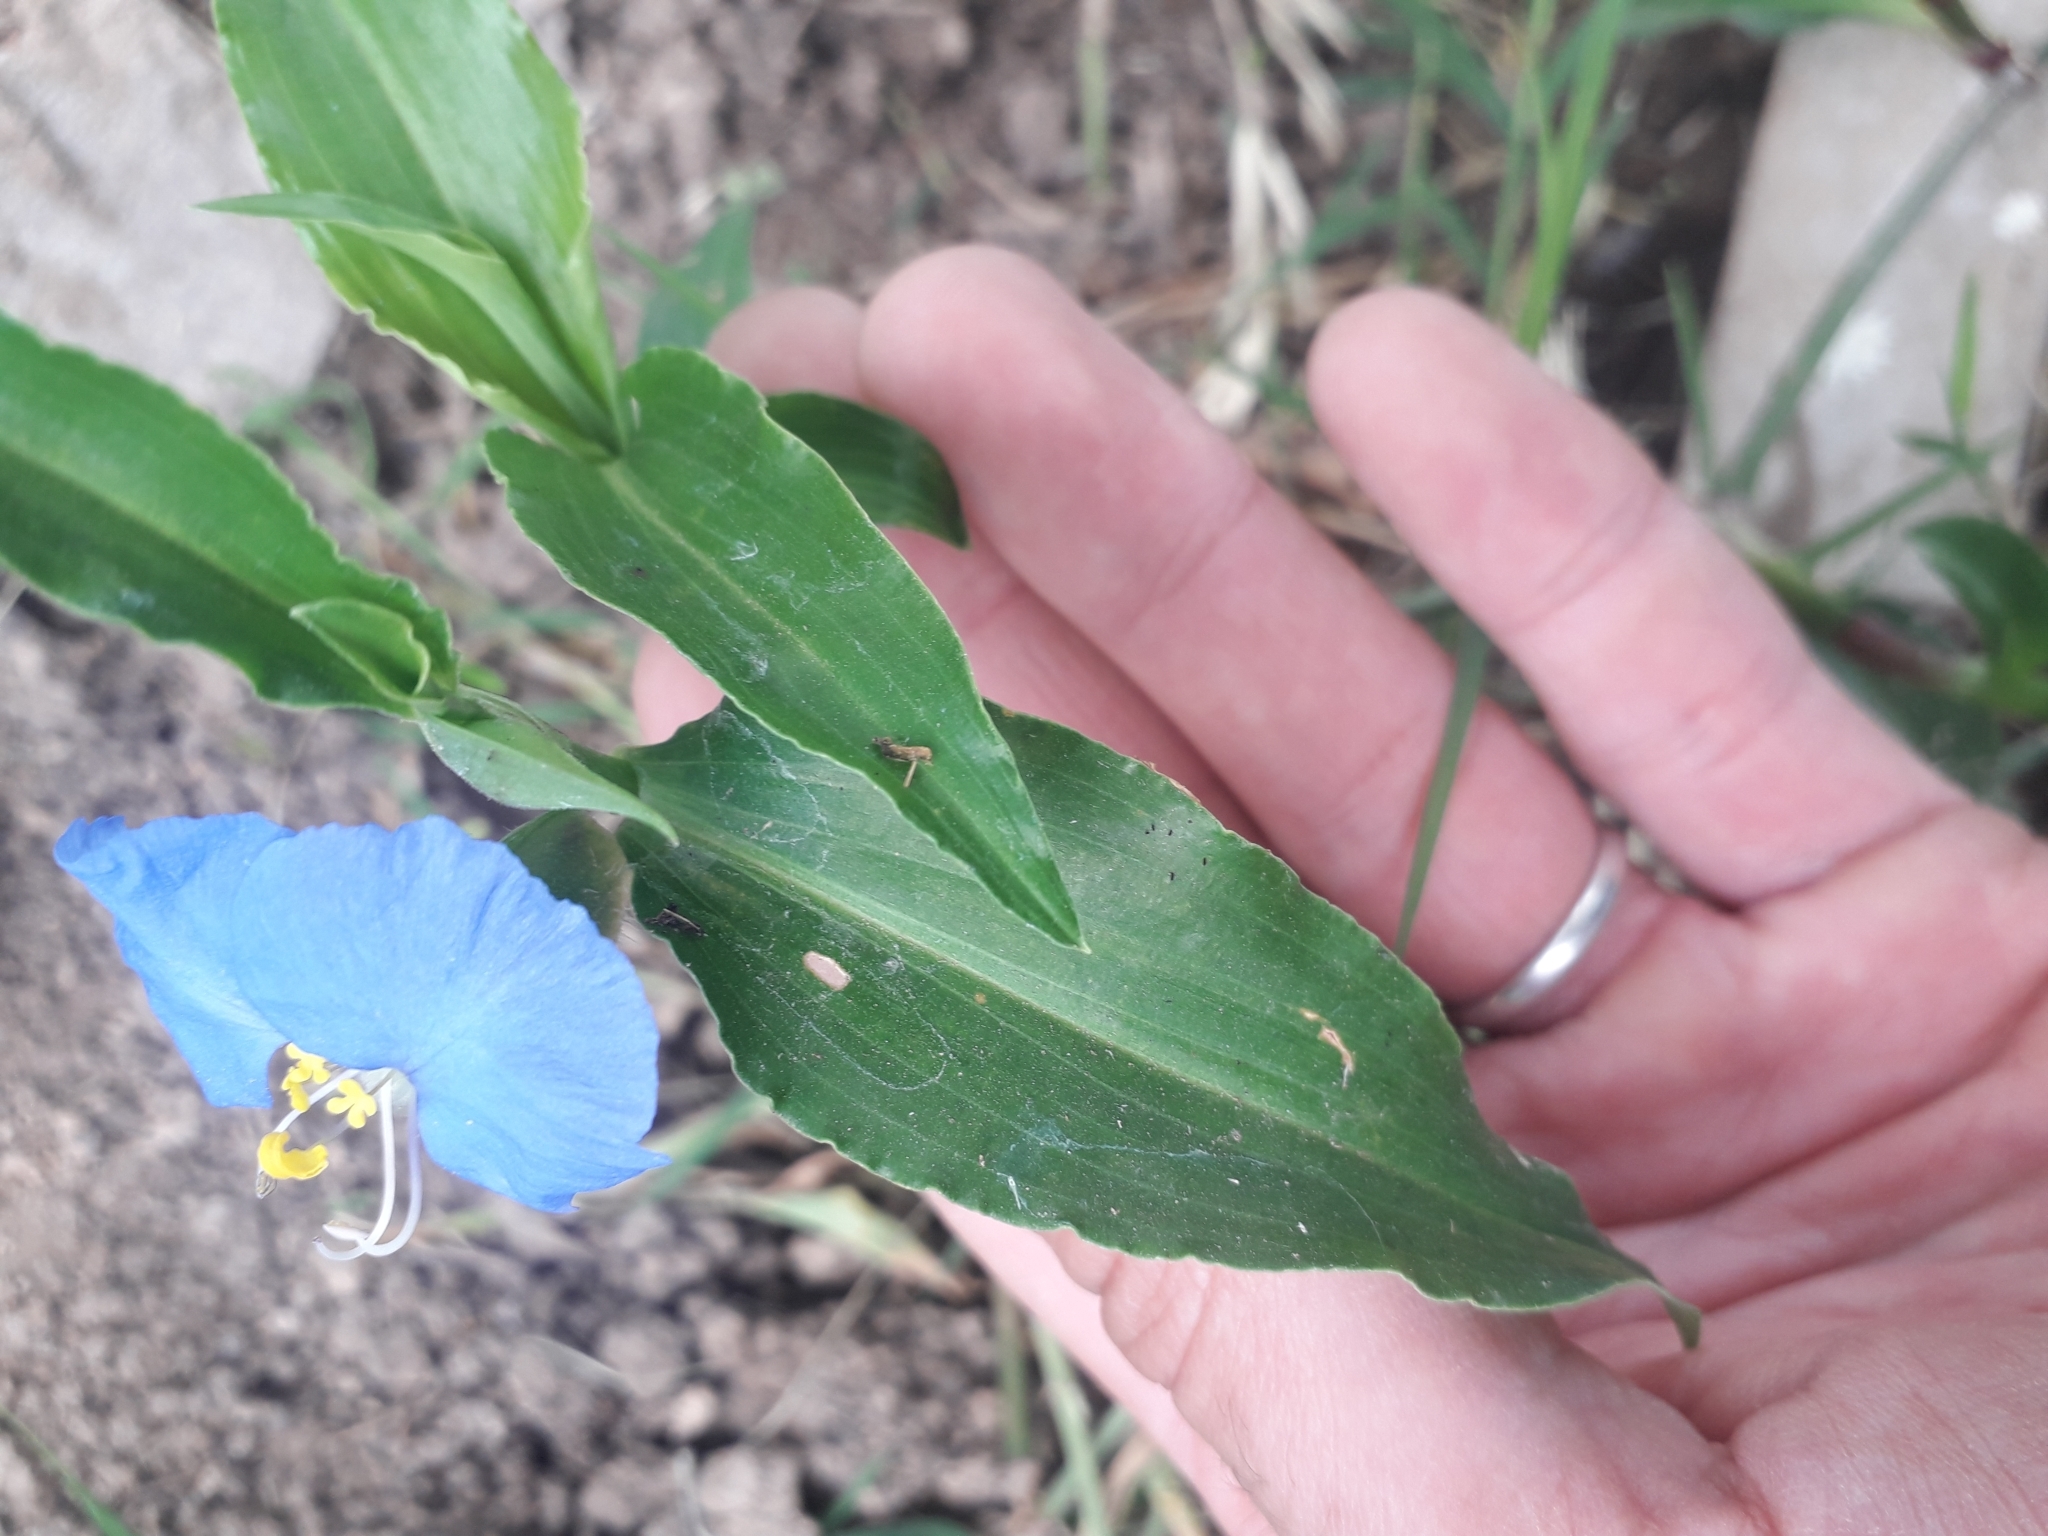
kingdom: Plantae
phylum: Tracheophyta
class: Liliopsida
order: Commelinales
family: Commelinaceae
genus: Commelina
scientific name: Commelina erecta
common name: Blousel blommetjie
